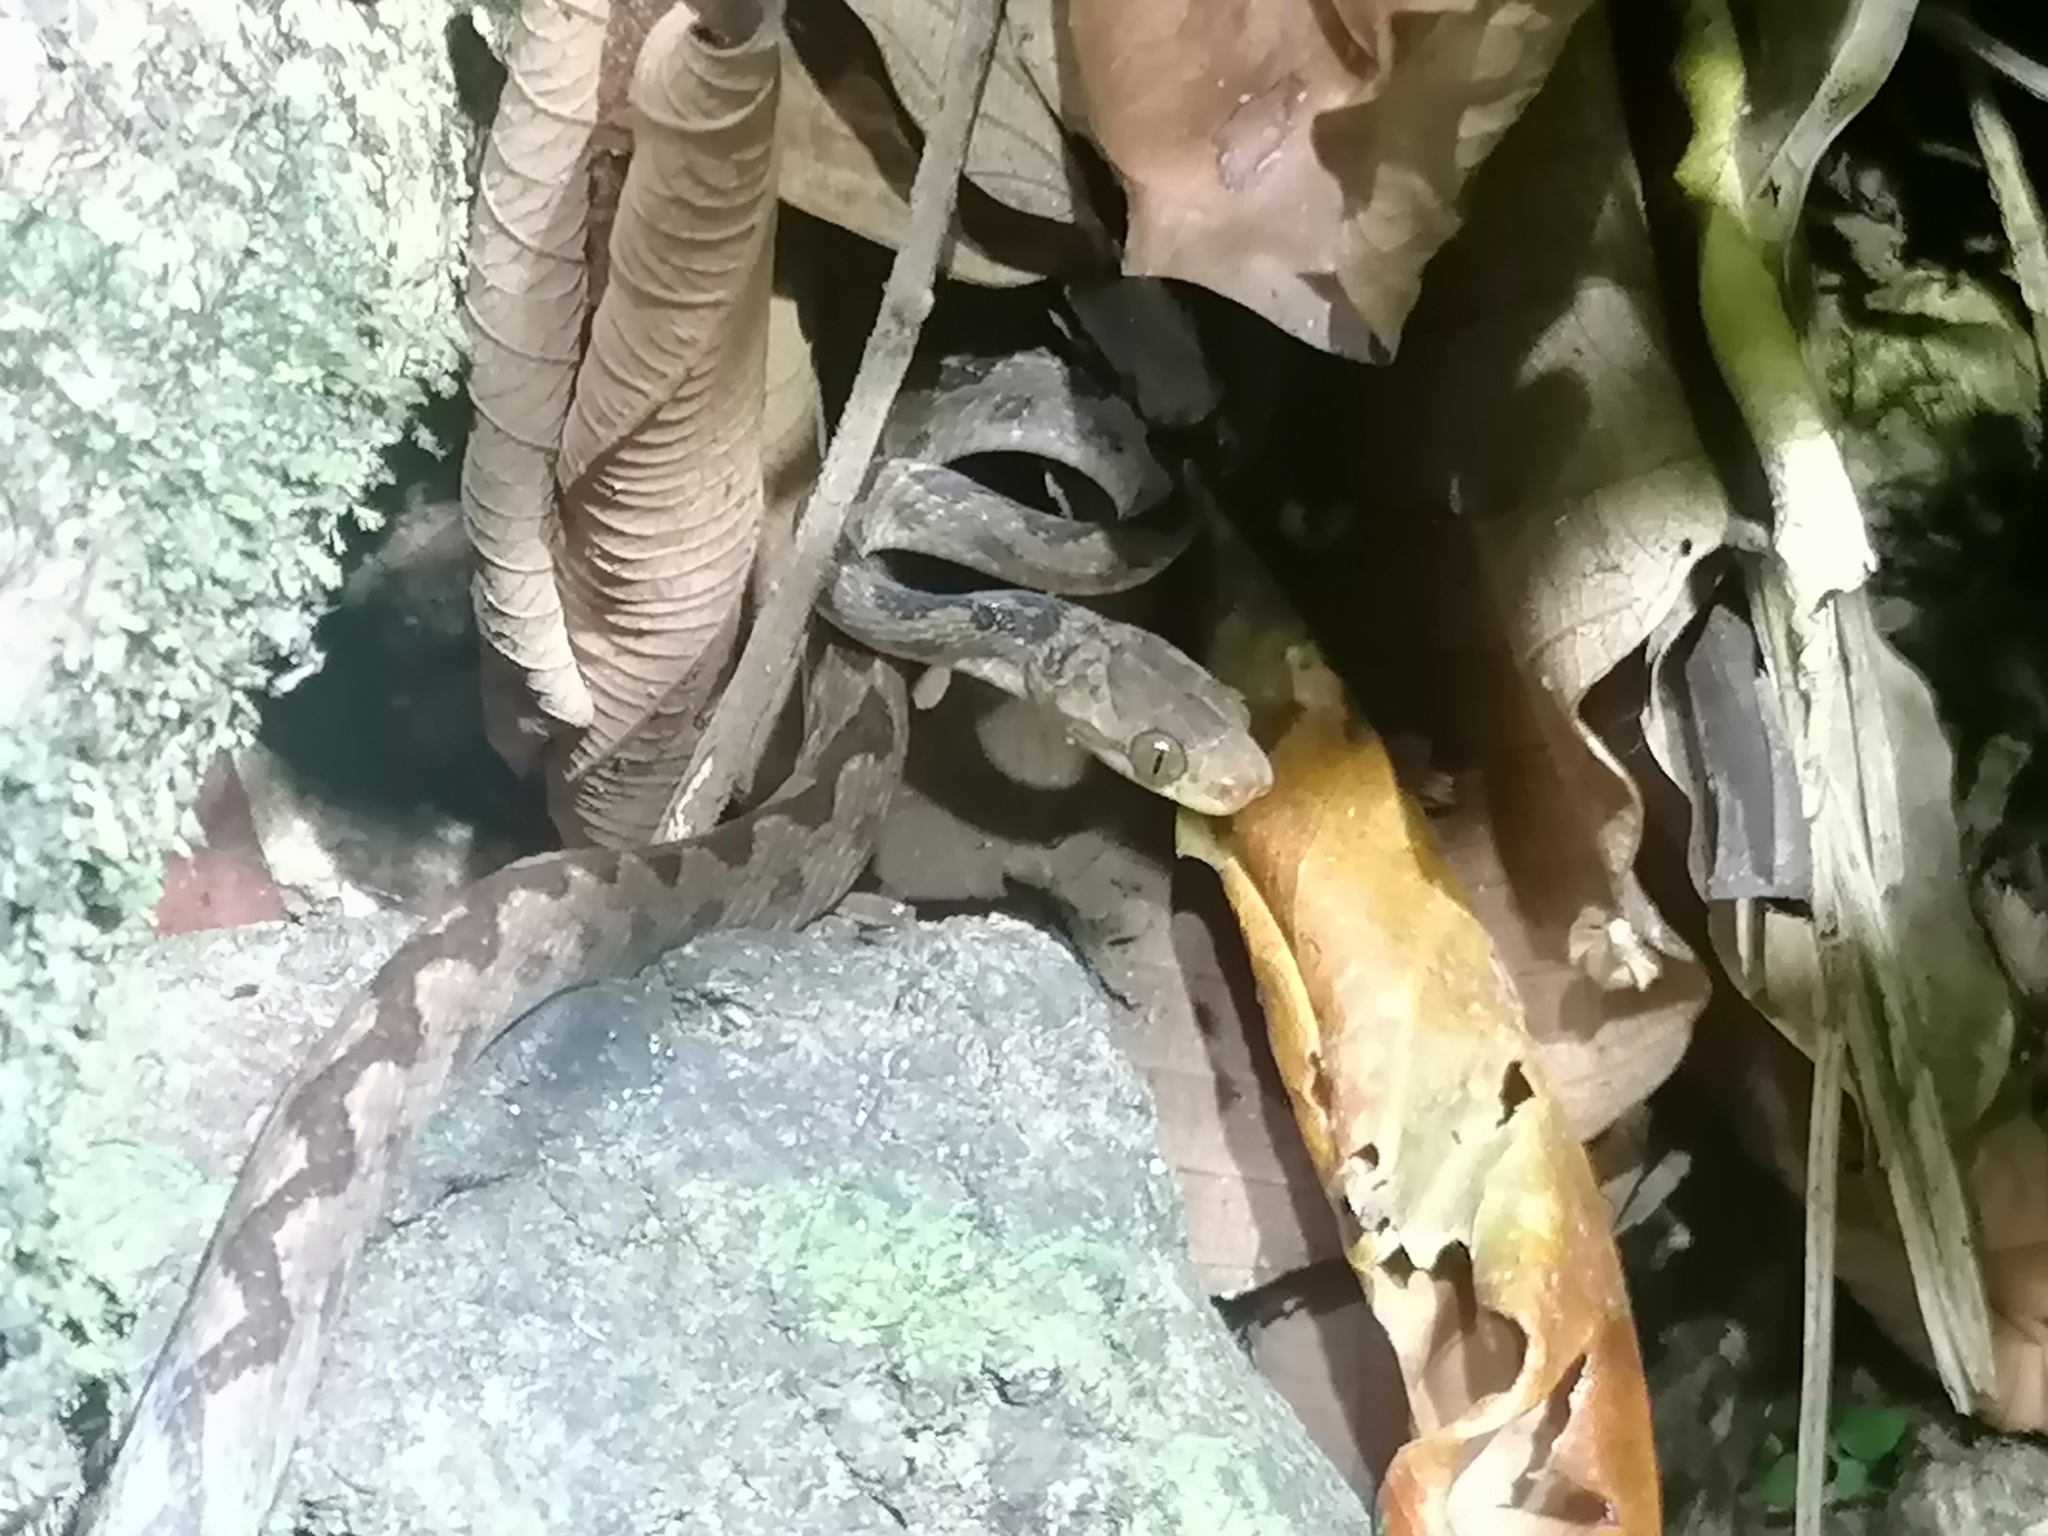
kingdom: Animalia
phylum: Chordata
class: Squamata
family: Colubridae
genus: Leptodeira
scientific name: Leptodeira ornata
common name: Northern cat-eyed snake
